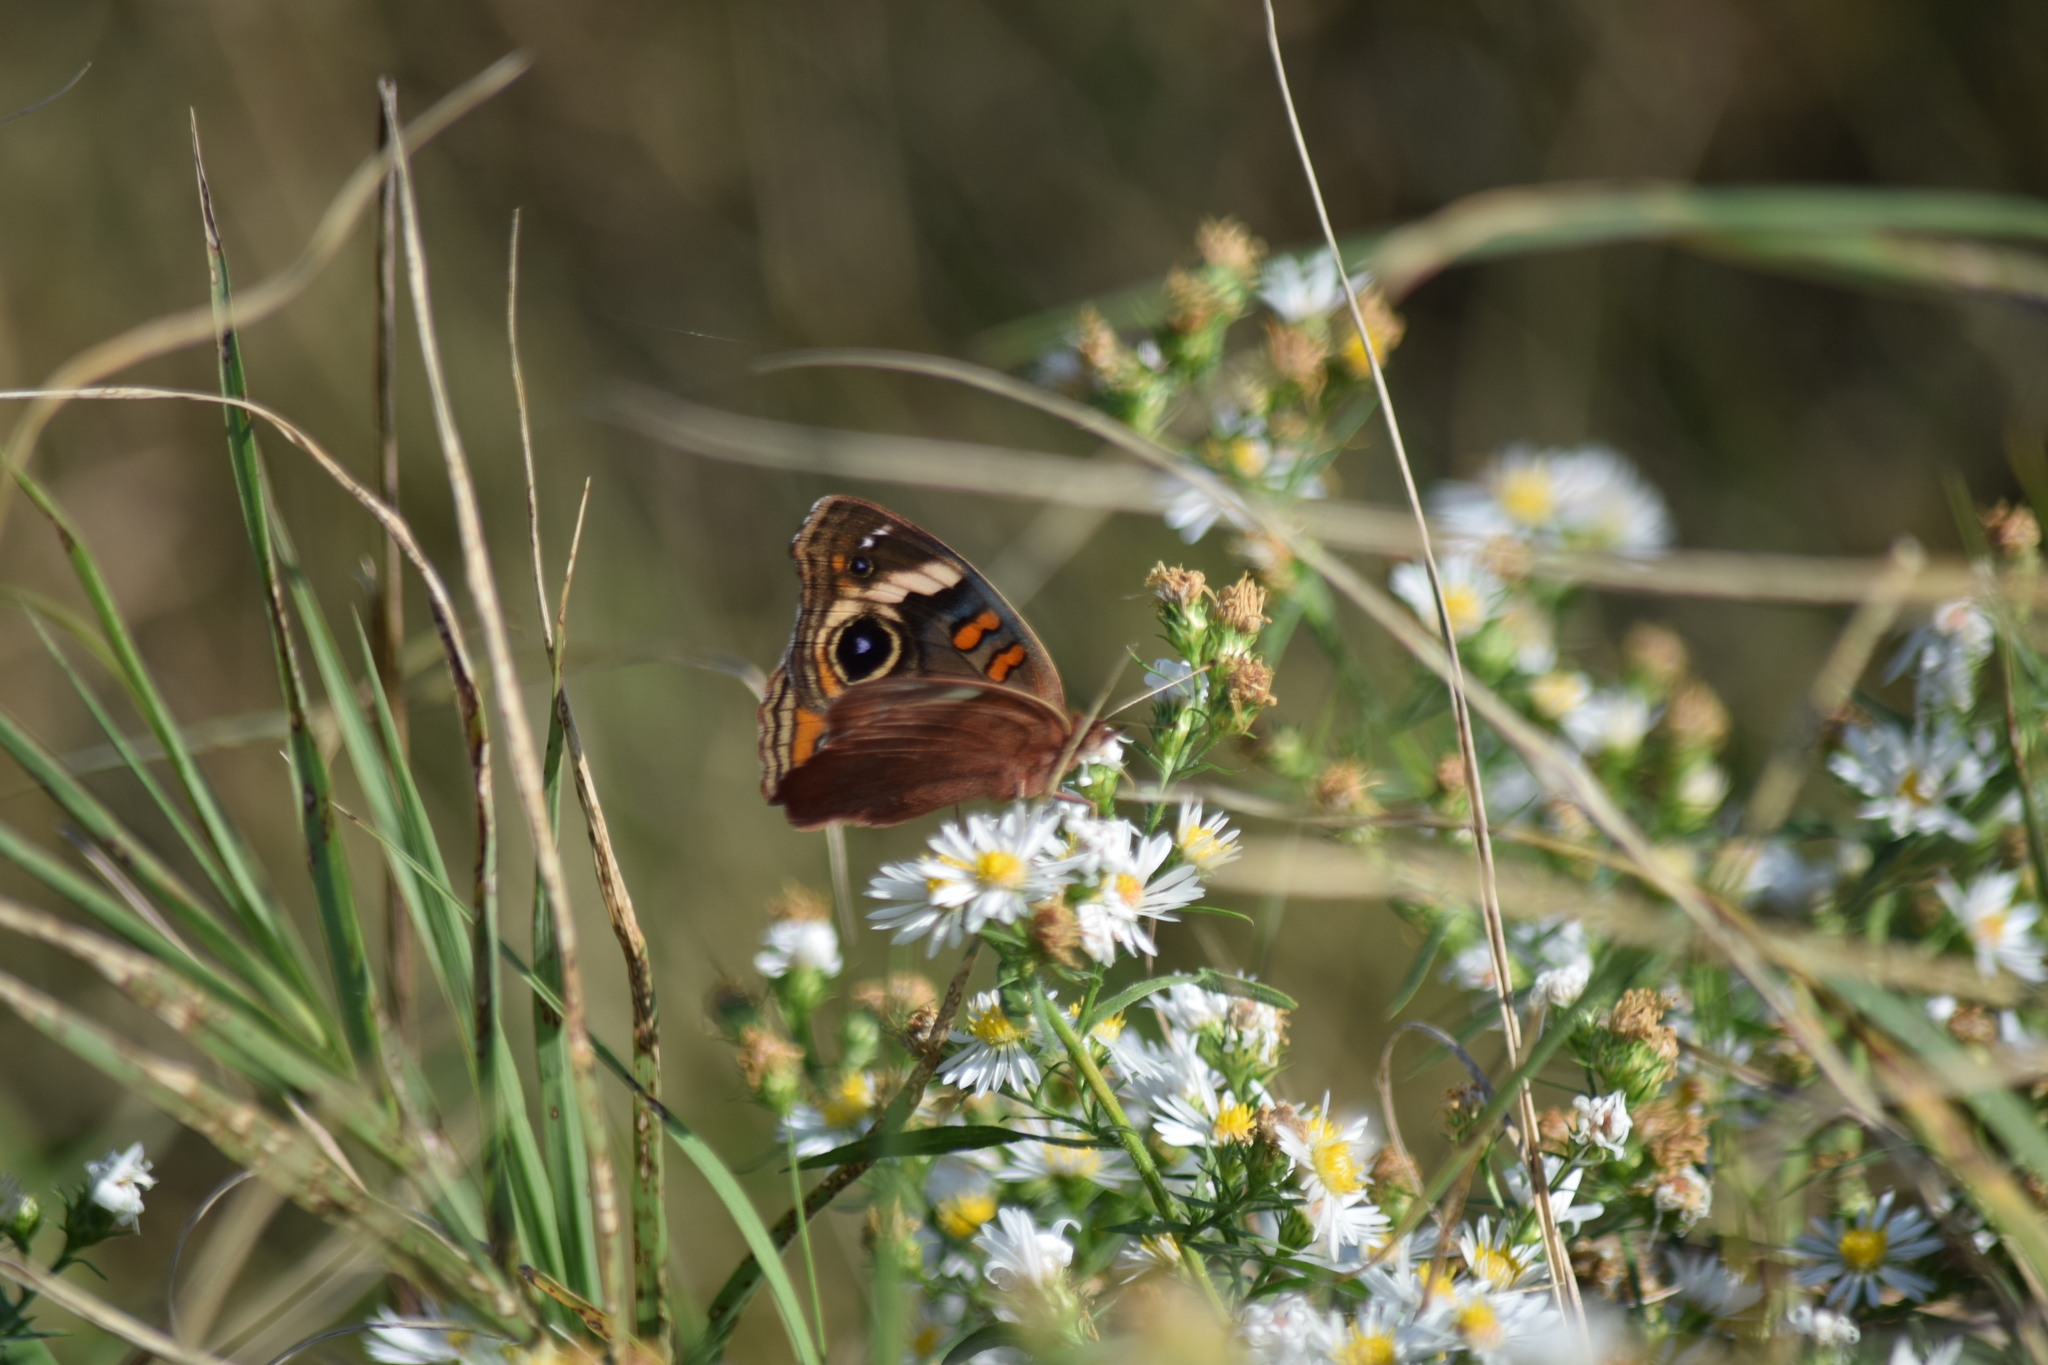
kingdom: Animalia
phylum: Arthropoda
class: Insecta
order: Lepidoptera
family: Nymphalidae
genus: Junonia
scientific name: Junonia coenia
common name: Common buckeye
